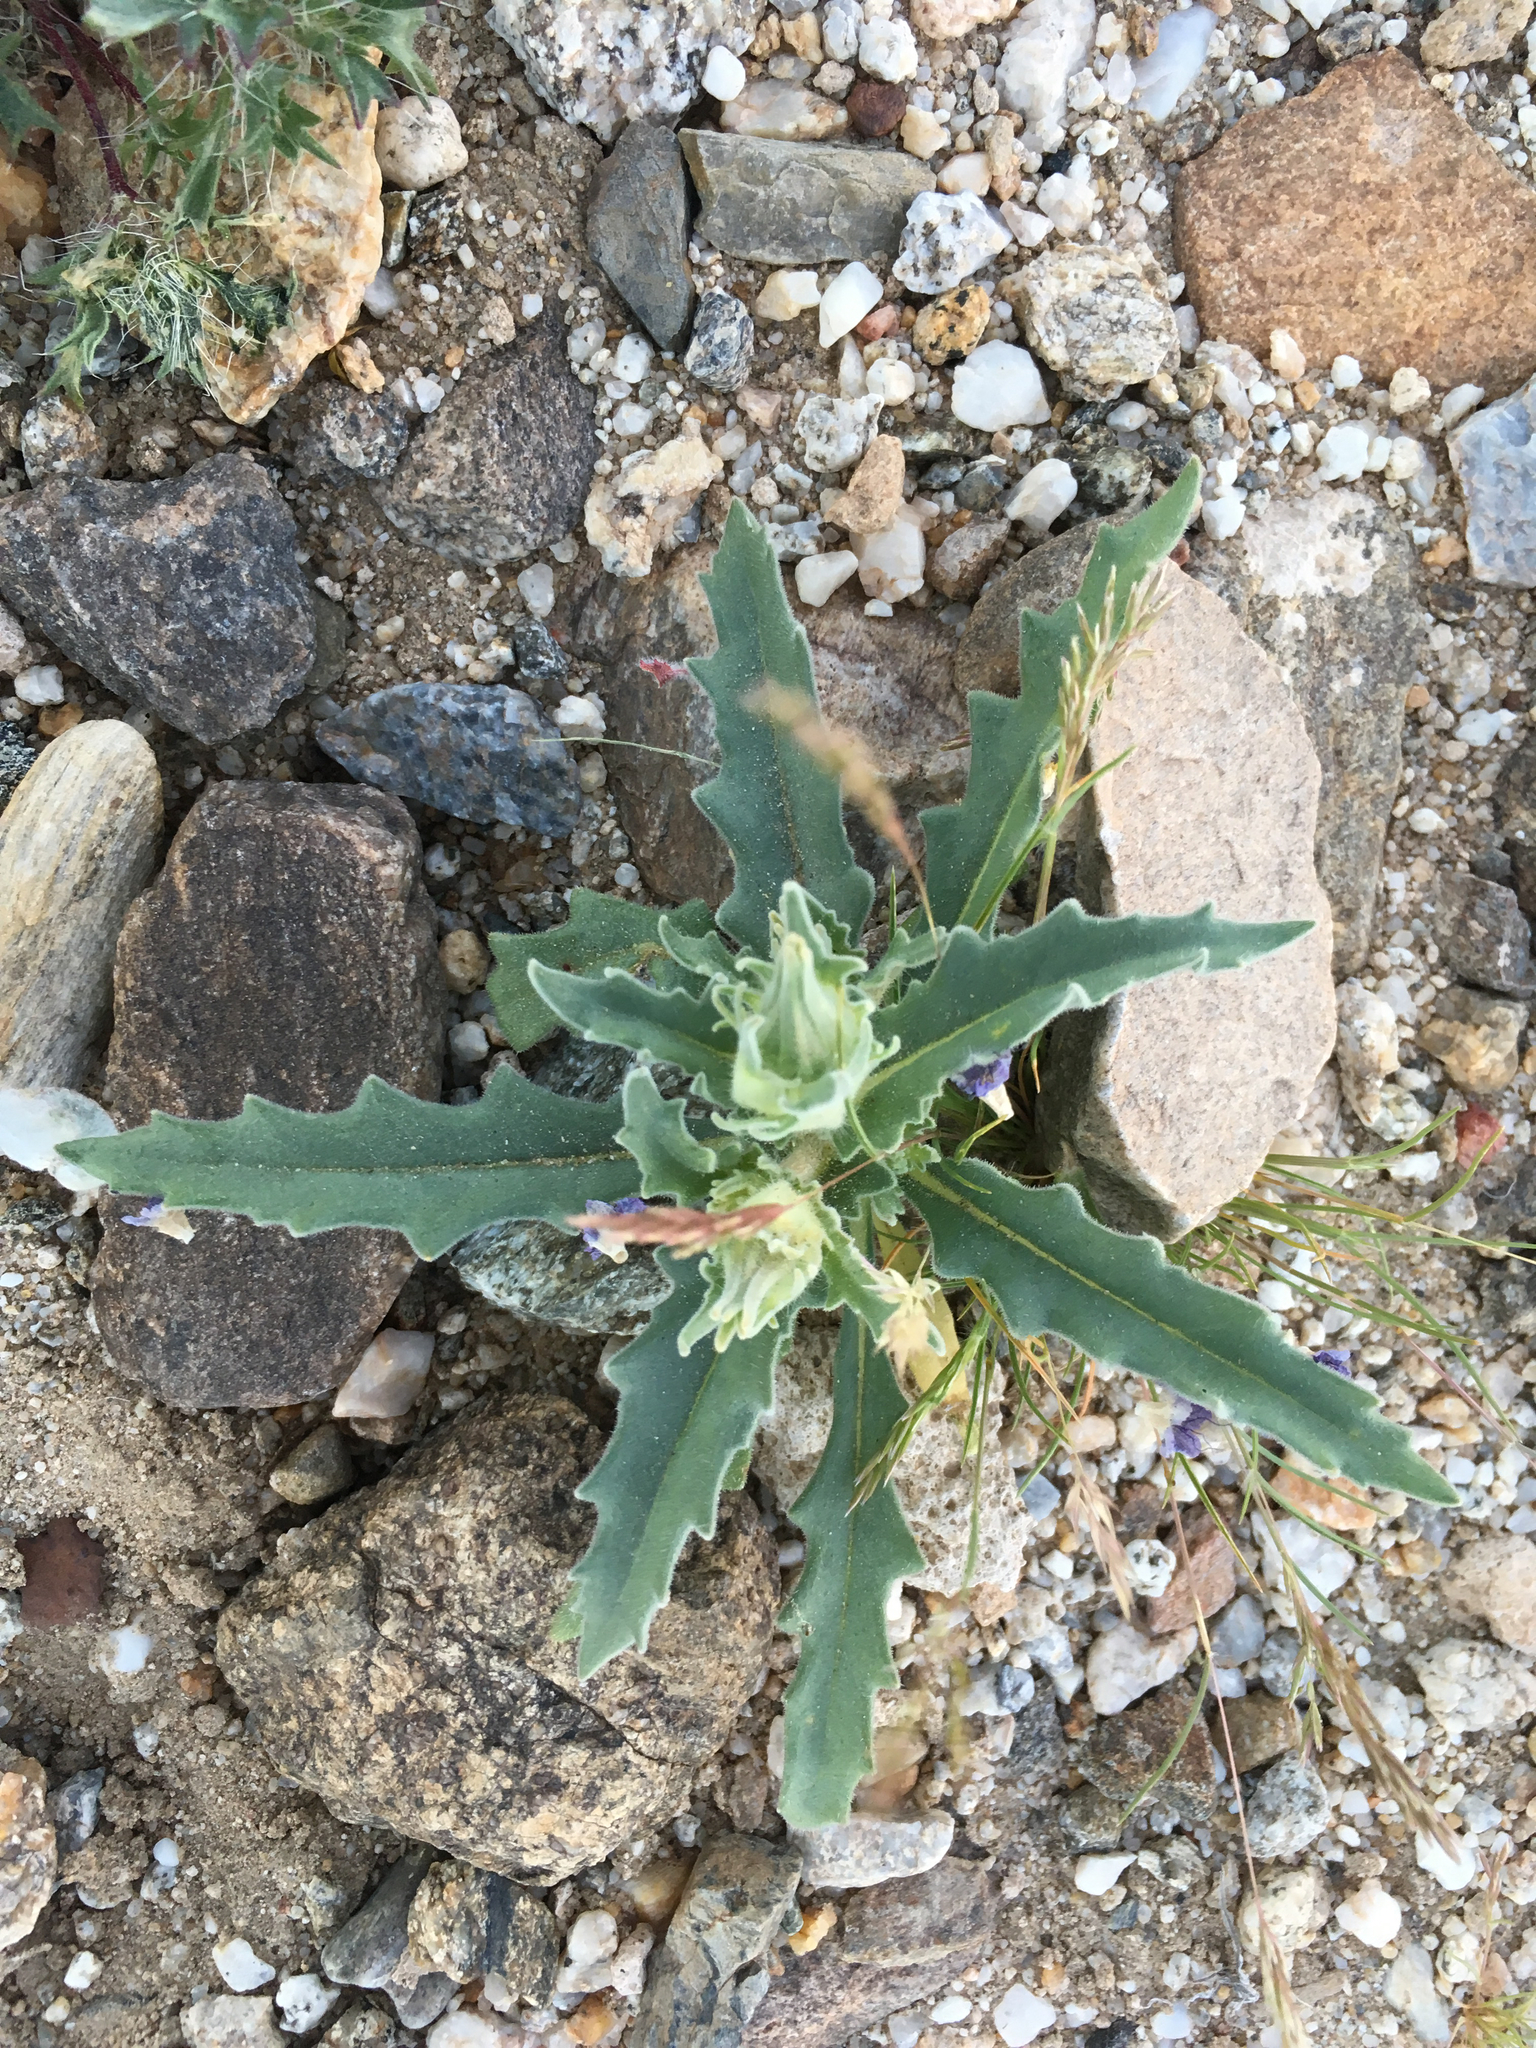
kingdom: Plantae
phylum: Tracheophyta
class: Magnoliopsida
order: Cornales
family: Loasaceae
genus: Mentzelia
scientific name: Mentzelia involucrata
